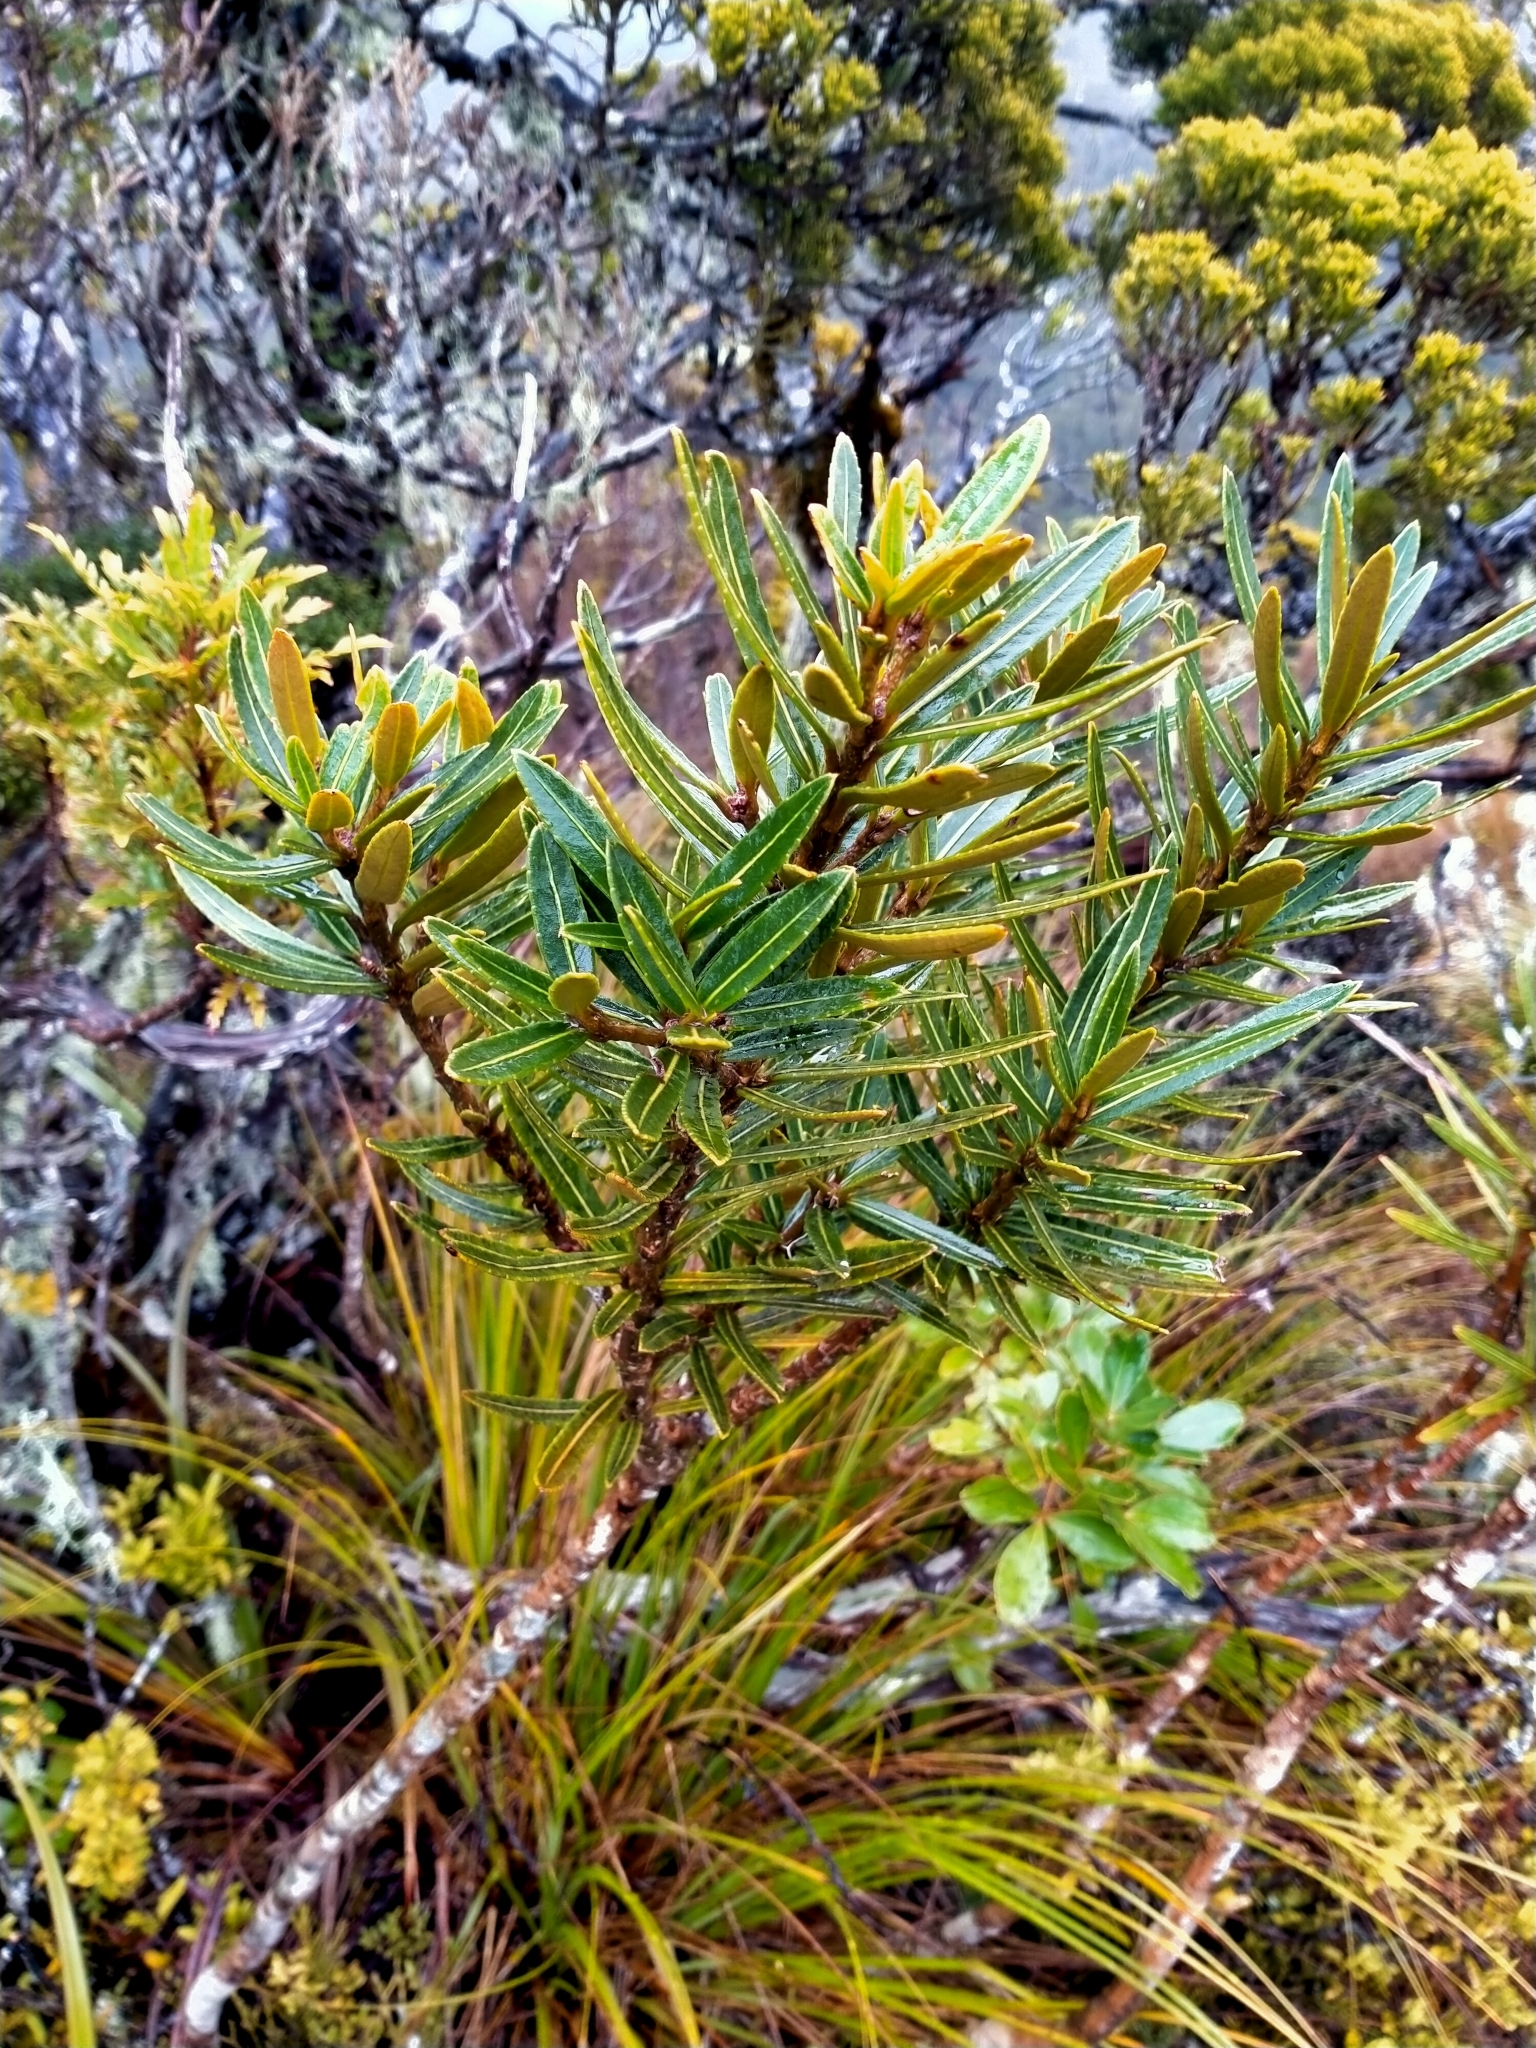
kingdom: Plantae
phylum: Tracheophyta
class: Magnoliopsida
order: Apiales
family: Araliaceae
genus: Pseudopanax
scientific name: Pseudopanax linearis
